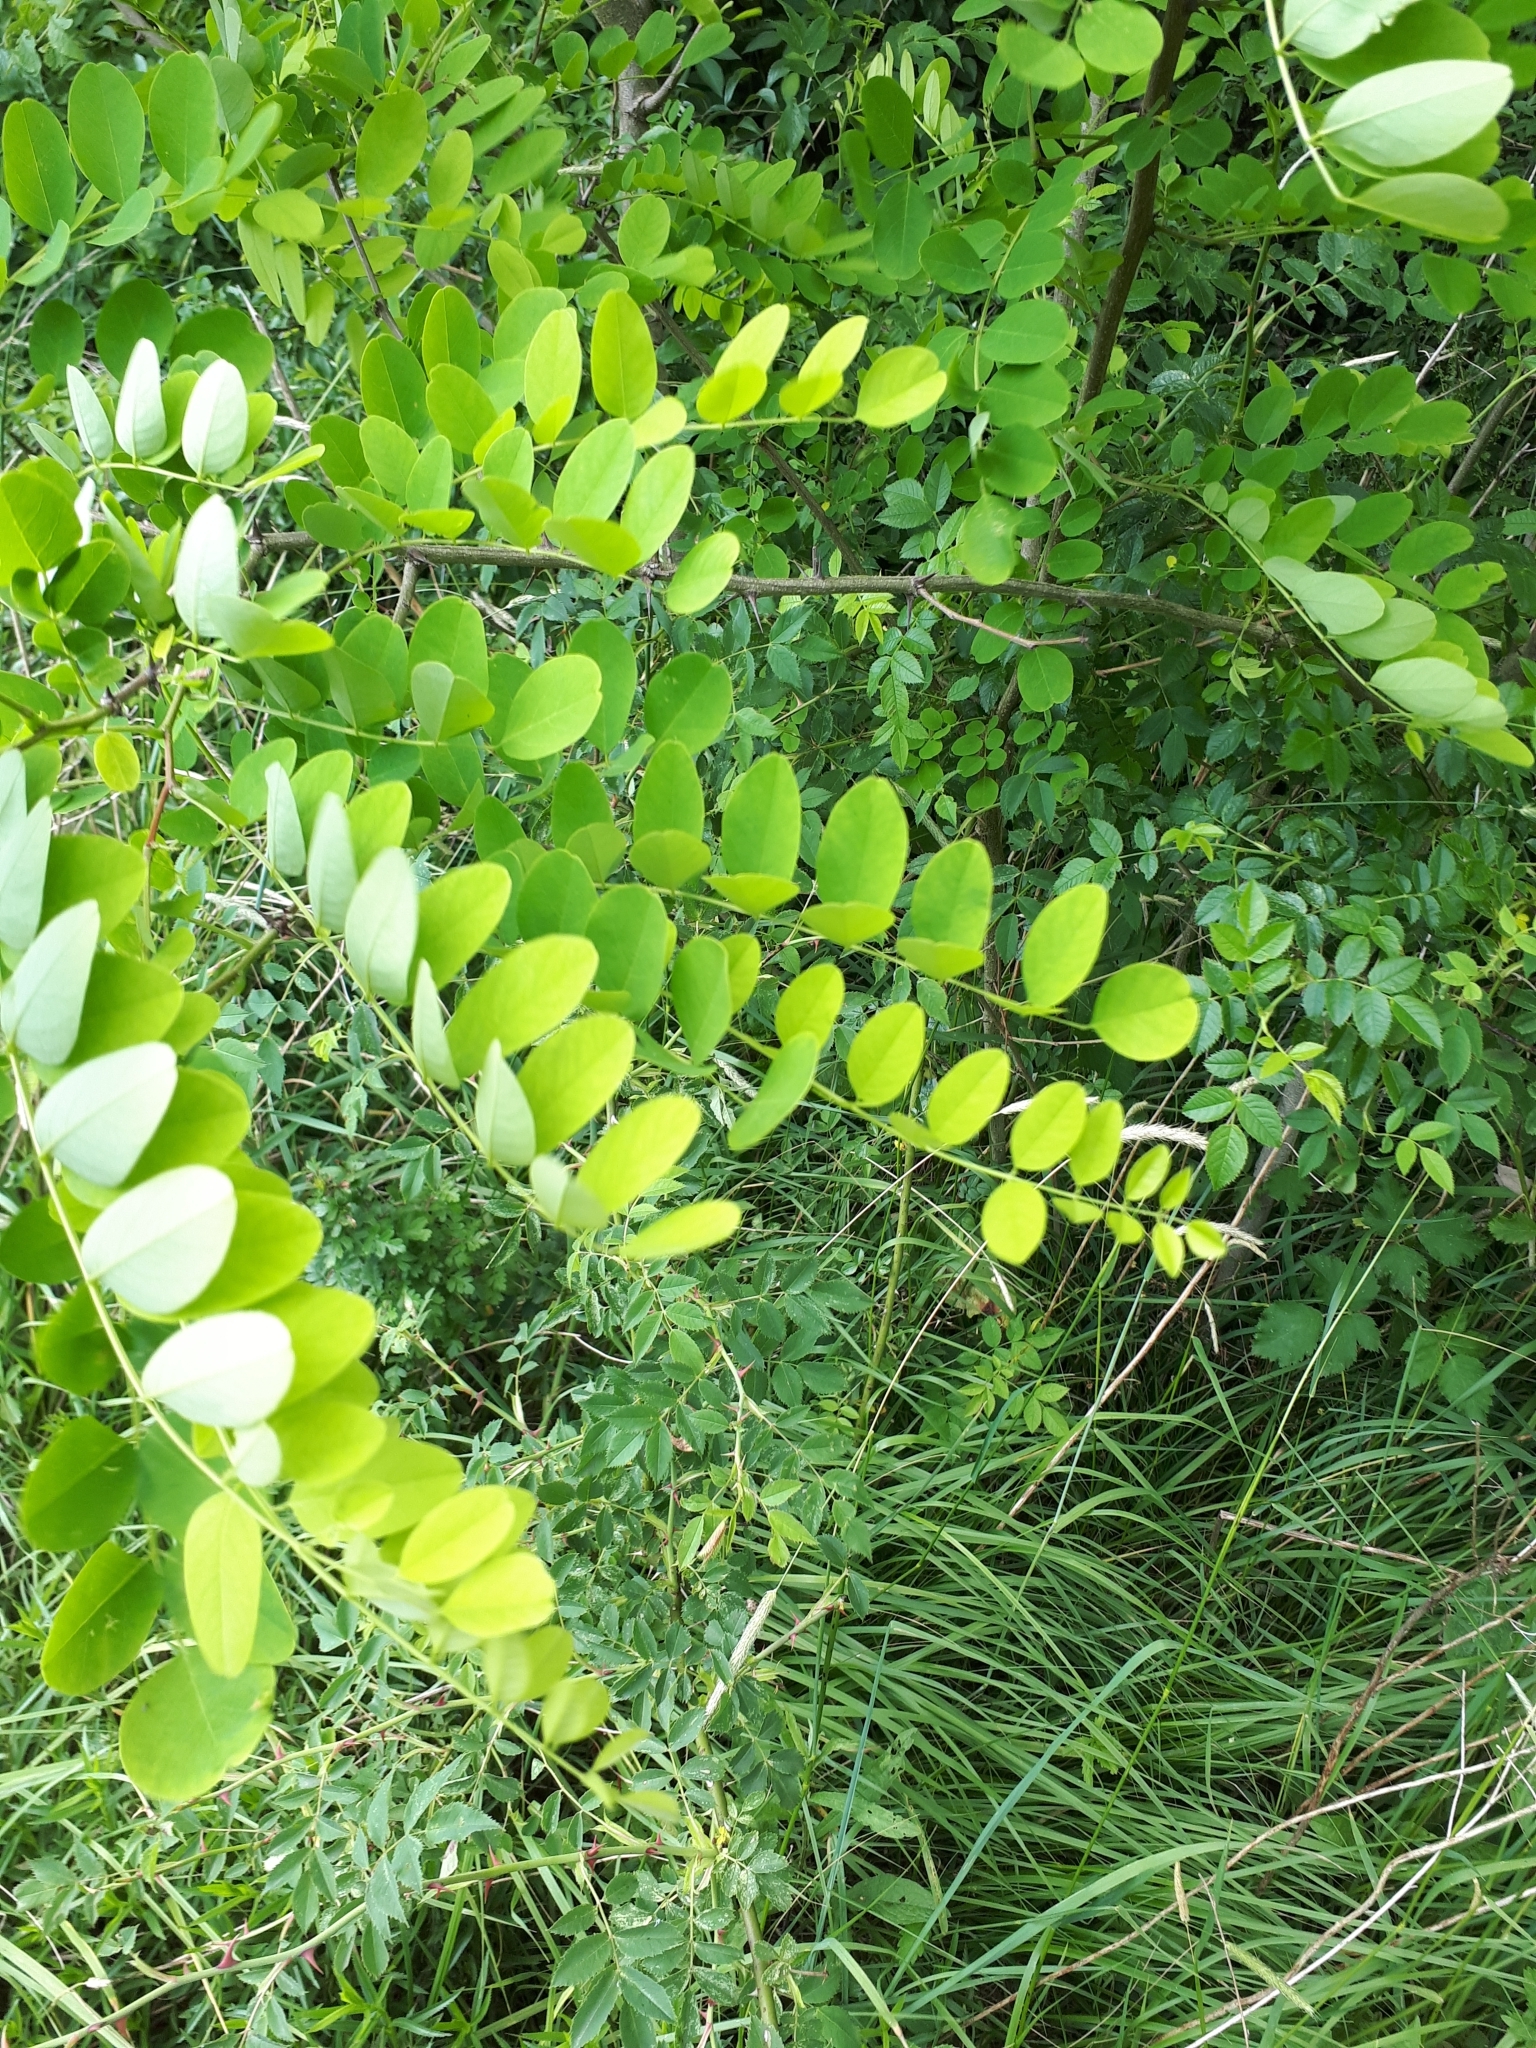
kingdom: Plantae
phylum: Tracheophyta
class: Magnoliopsida
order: Fabales
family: Fabaceae
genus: Robinia
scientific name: Robinia pseudoacacia
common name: Black locust
